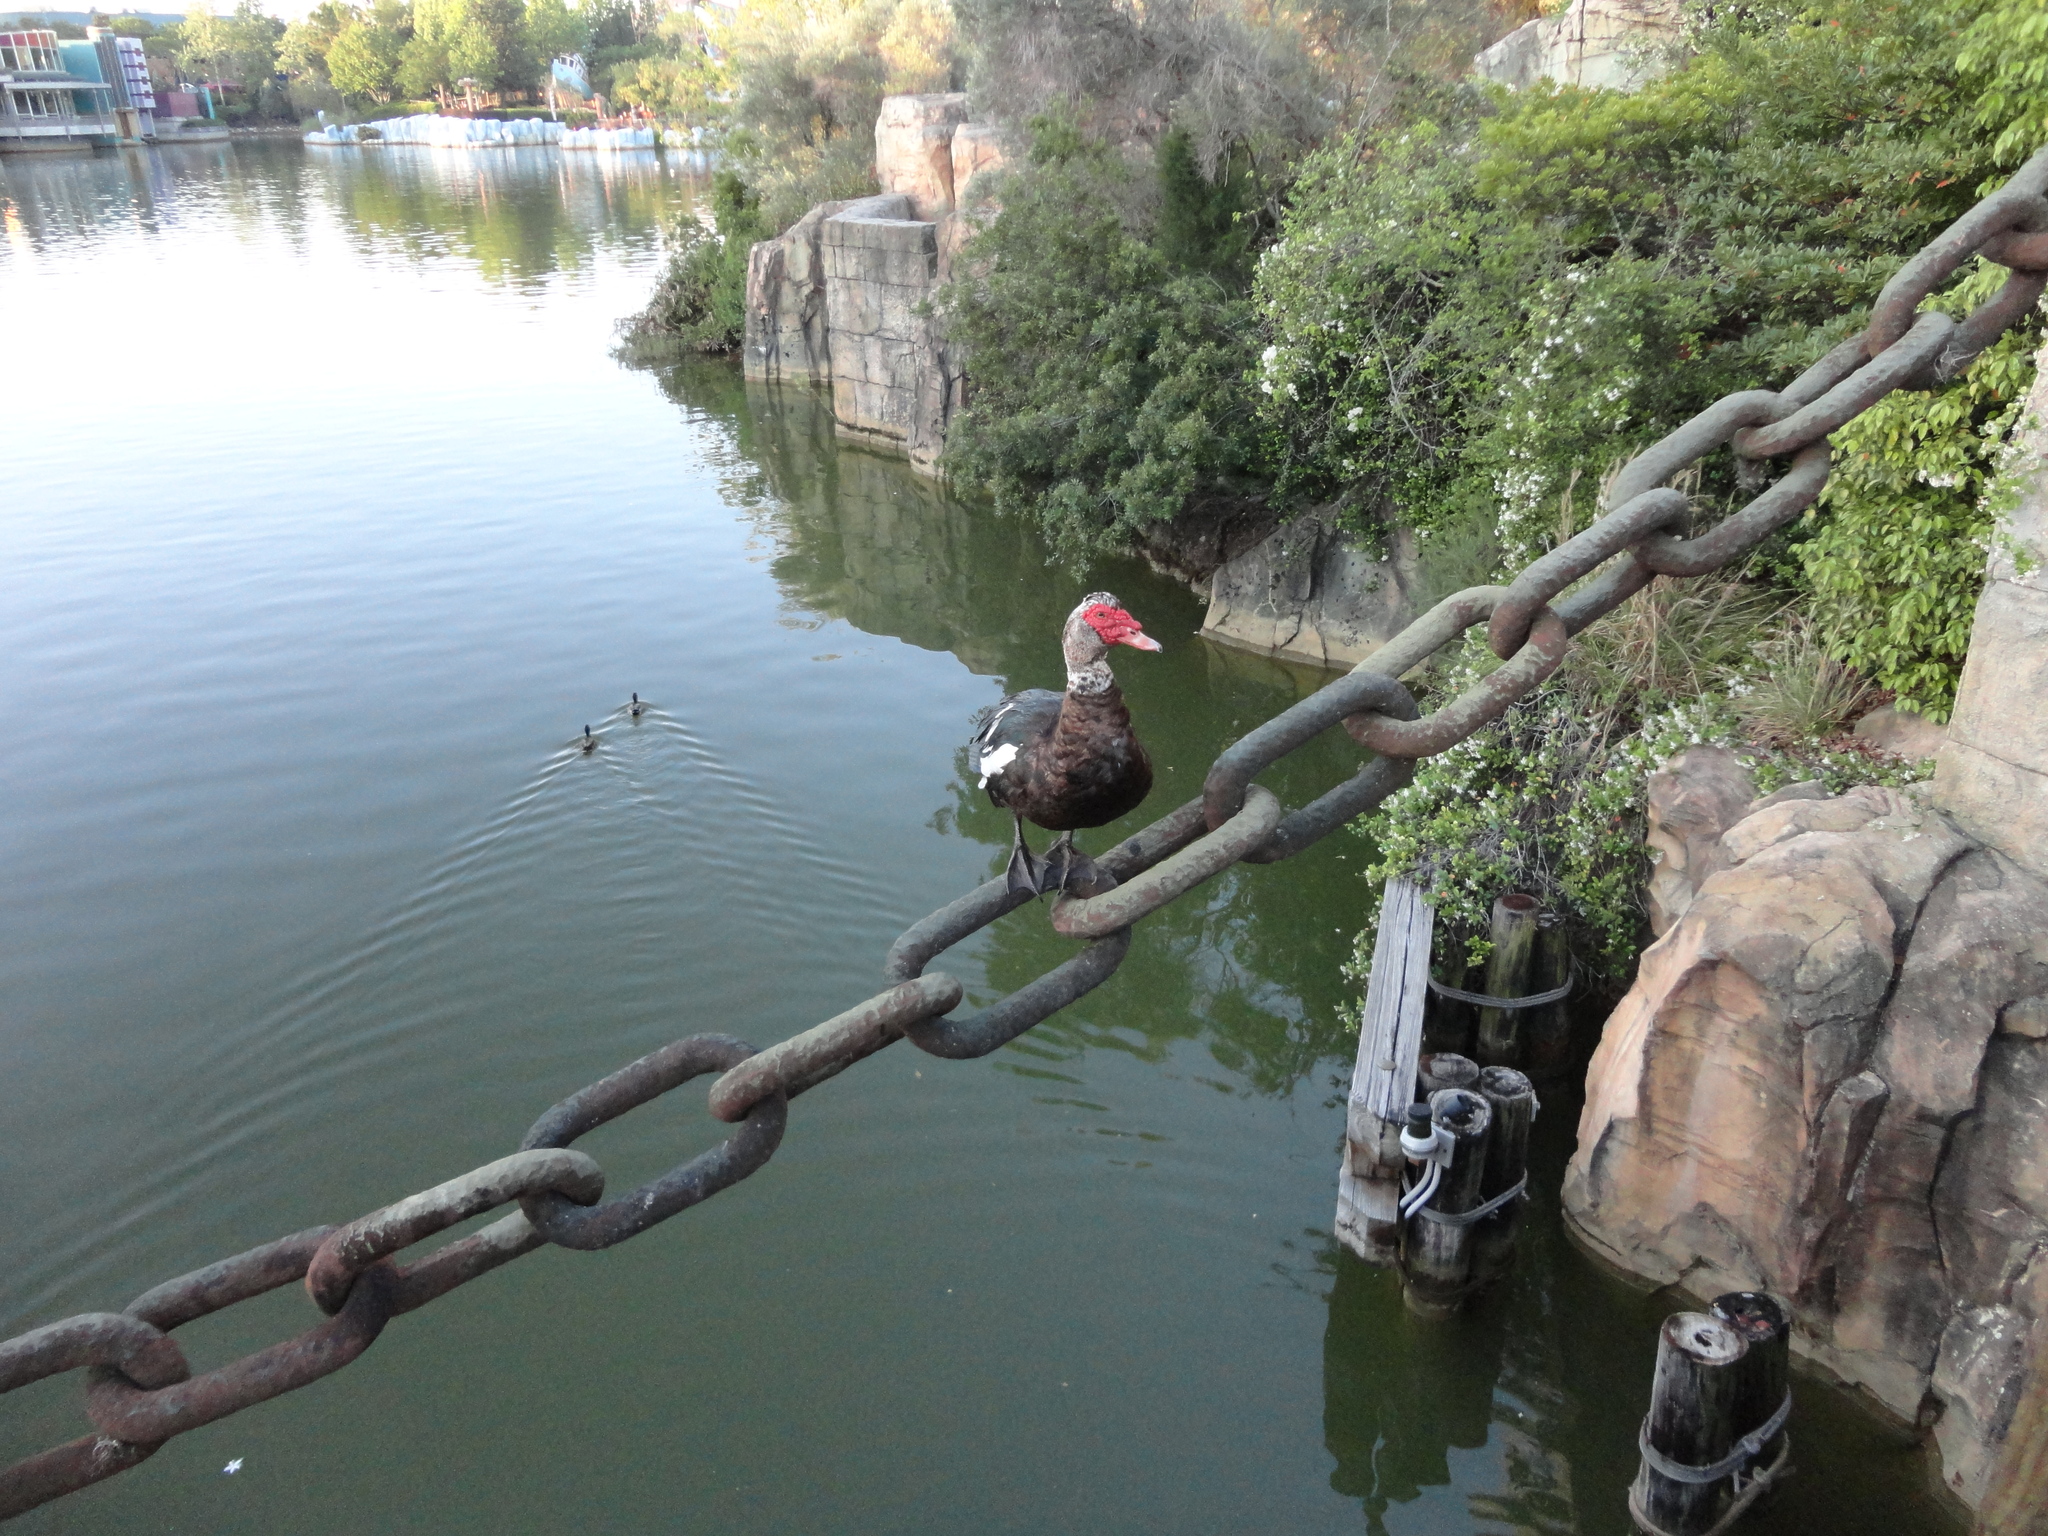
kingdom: Animalia
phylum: Chordata
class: Aves
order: Anseriformes
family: Anatidae
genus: Cairina
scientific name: Cairina moschata
